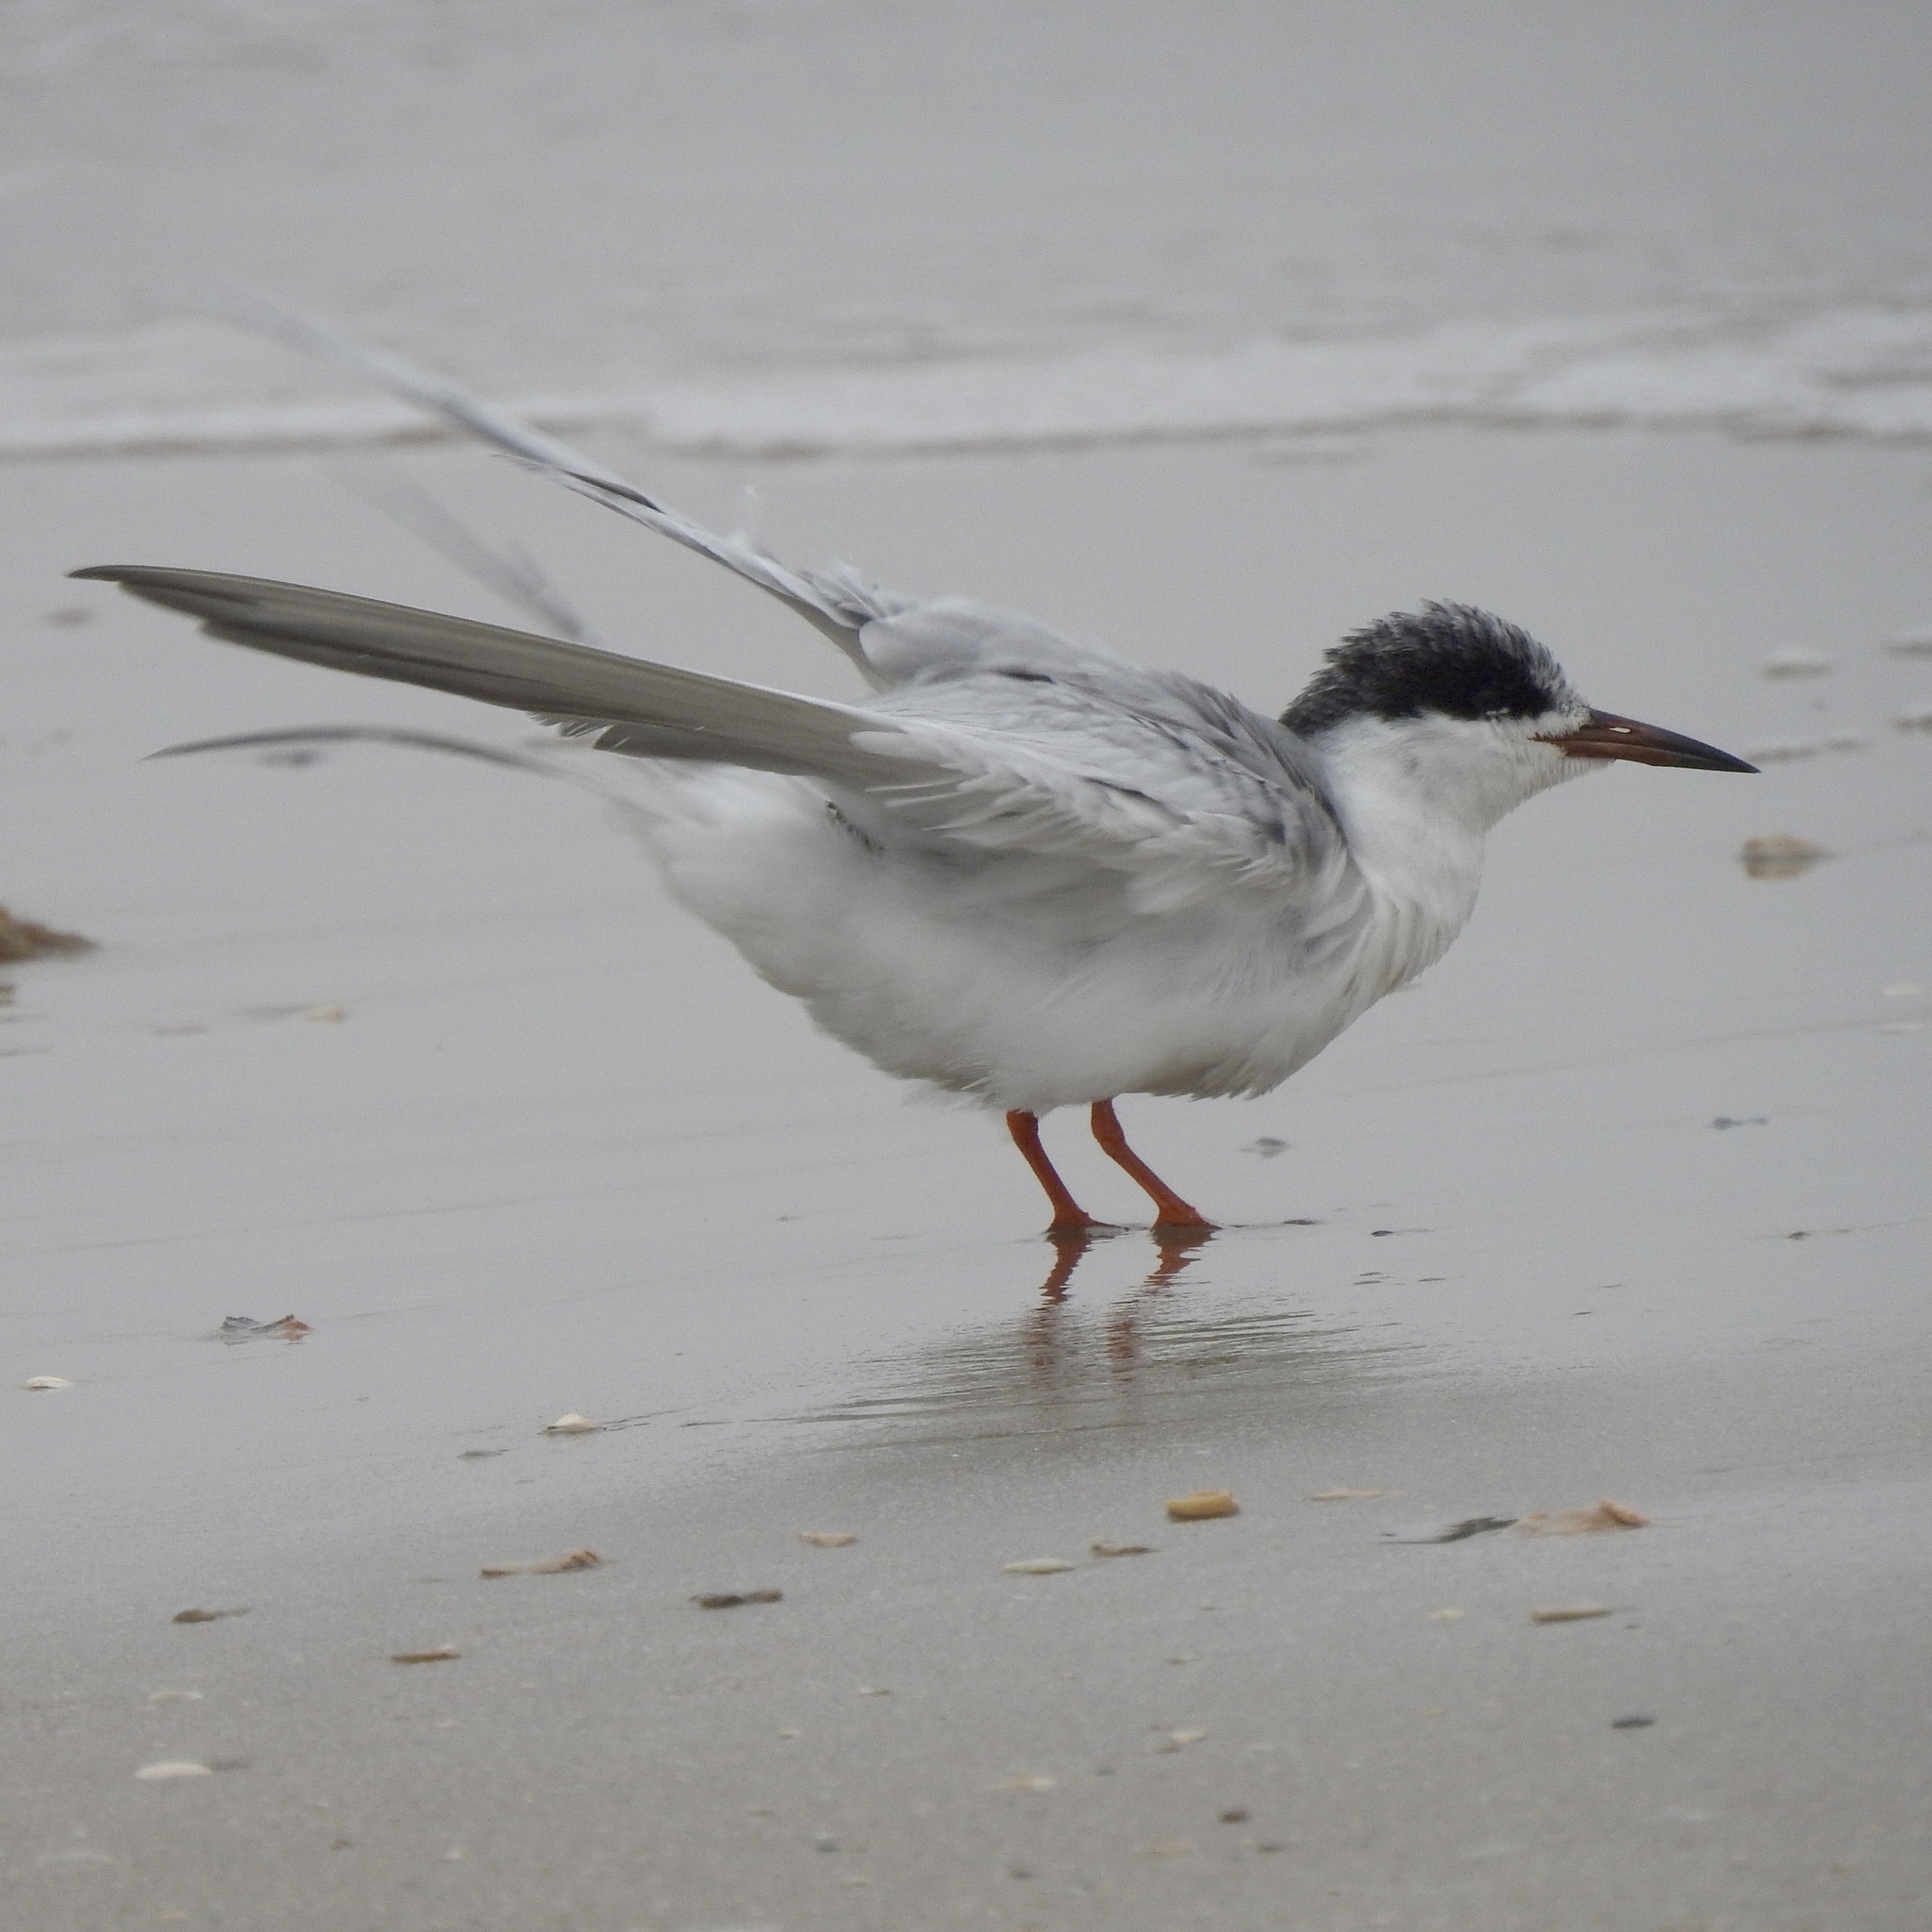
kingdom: Animalia
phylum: Chordata
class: Aves
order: Charadriiformes
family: Laridae
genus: Sterna
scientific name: Sterna forsteri
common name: Forster's tern
